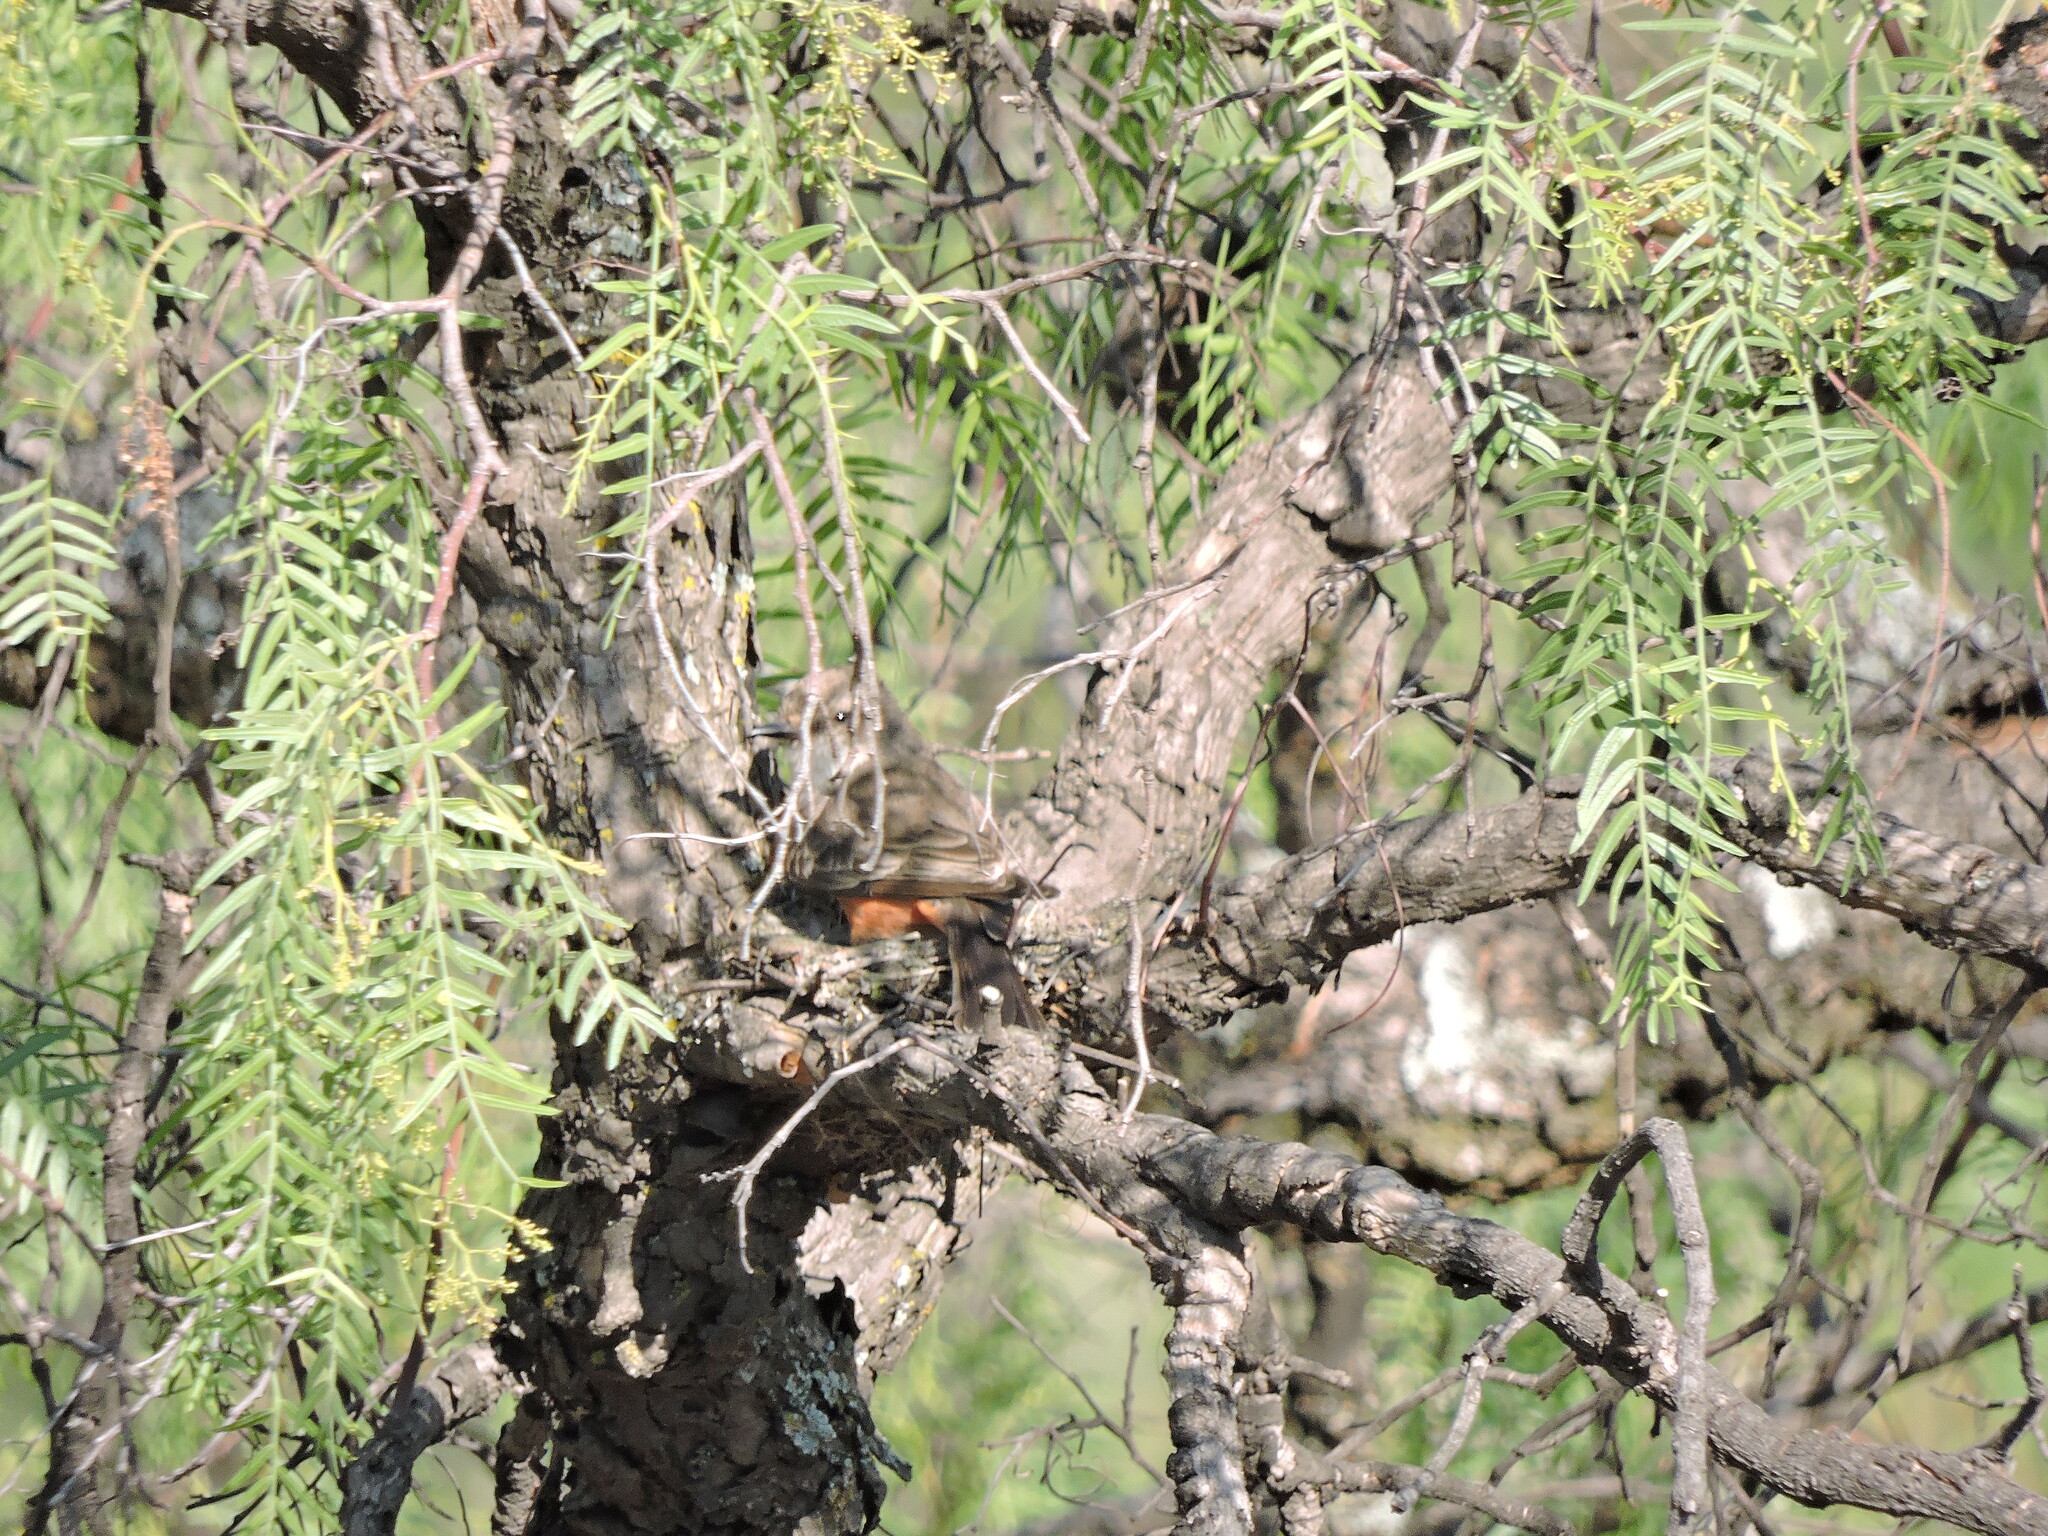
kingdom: Animalia
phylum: Chordata
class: Aves
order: Passeriformes
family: Tyrannidae
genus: Pyrocephalus
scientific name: Pyrocephalus rubinus
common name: Vermilion flycatcher
